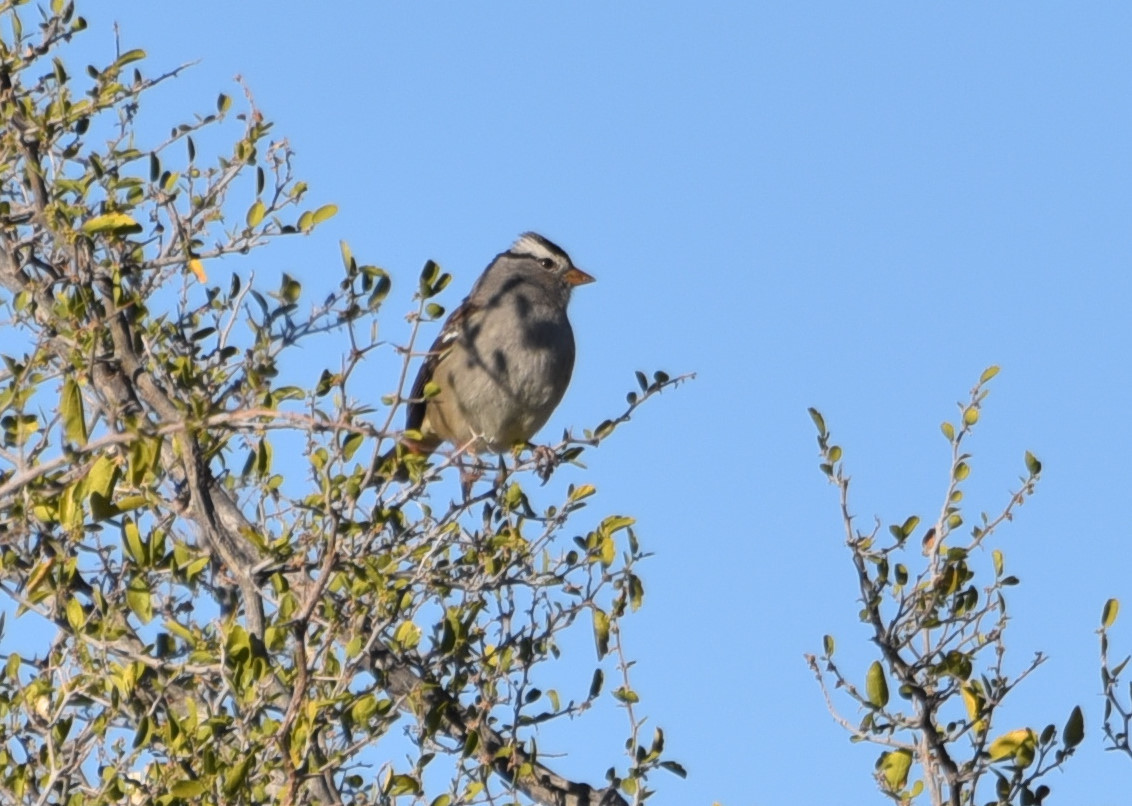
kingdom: Animalia
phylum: Chordata
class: Aves
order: Passeriformes
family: Passerellidae
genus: Zonotrichia
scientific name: Zonotrichia leucophrys
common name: White-crowned sparrow
